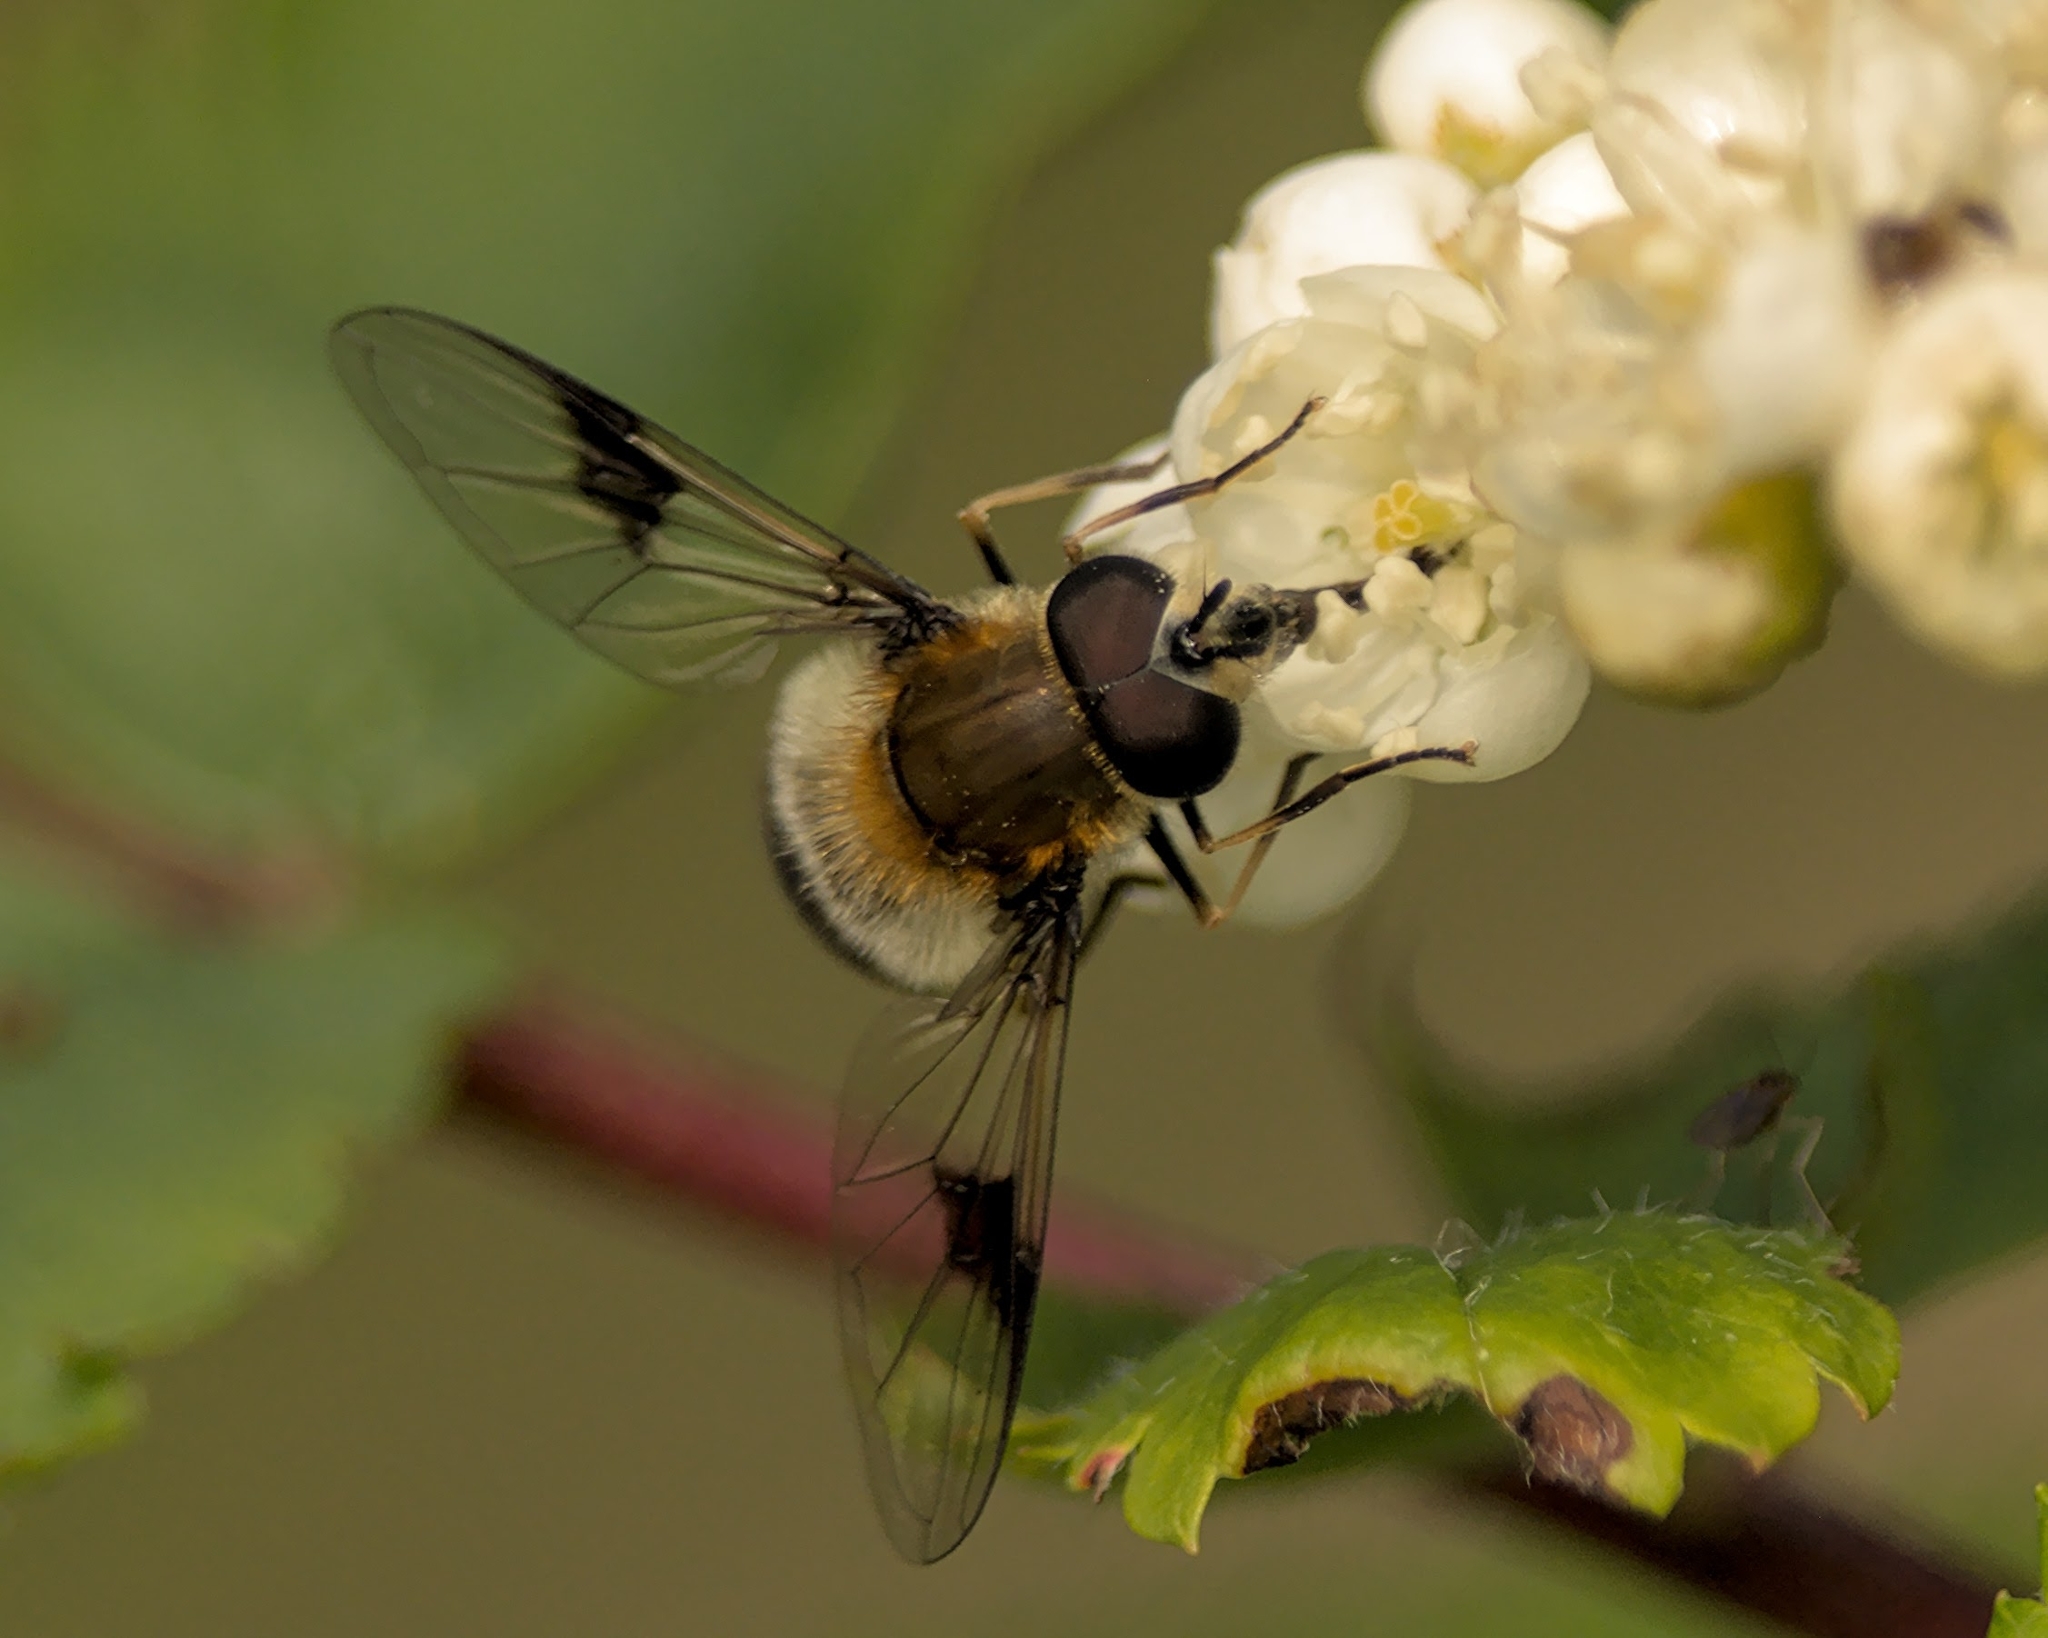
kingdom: Animalia
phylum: Arthropoda
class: Insecta
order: Diptera
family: Syrphidae
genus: Leucozona
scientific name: Leucozona lucorum
